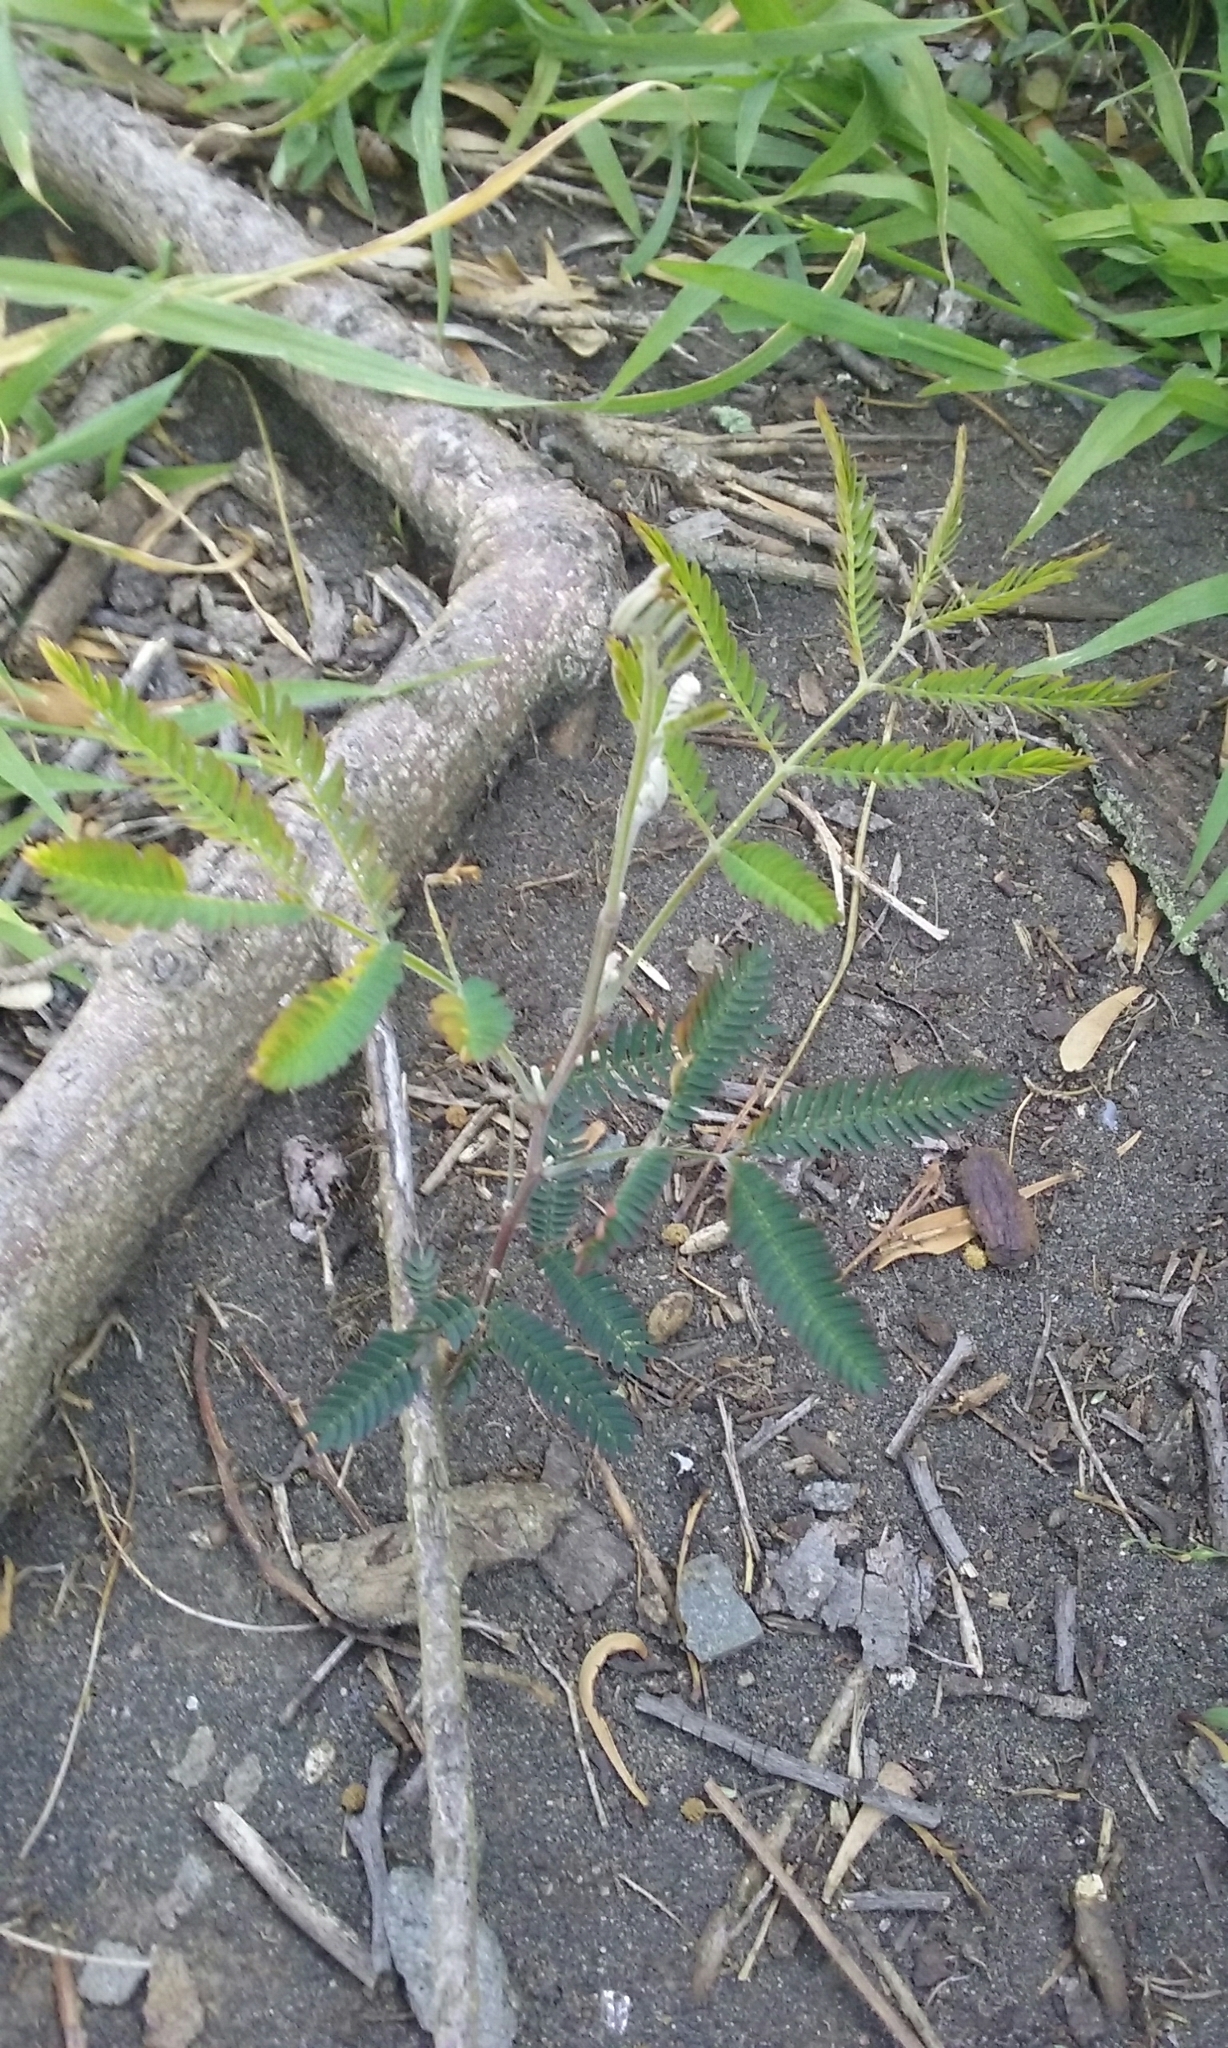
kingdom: Plantae
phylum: Tracheophyta
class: Magnoliopsida
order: Fabales
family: Fabaceae
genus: Acacia
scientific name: Acacia melanoxylon
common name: Blackwood
